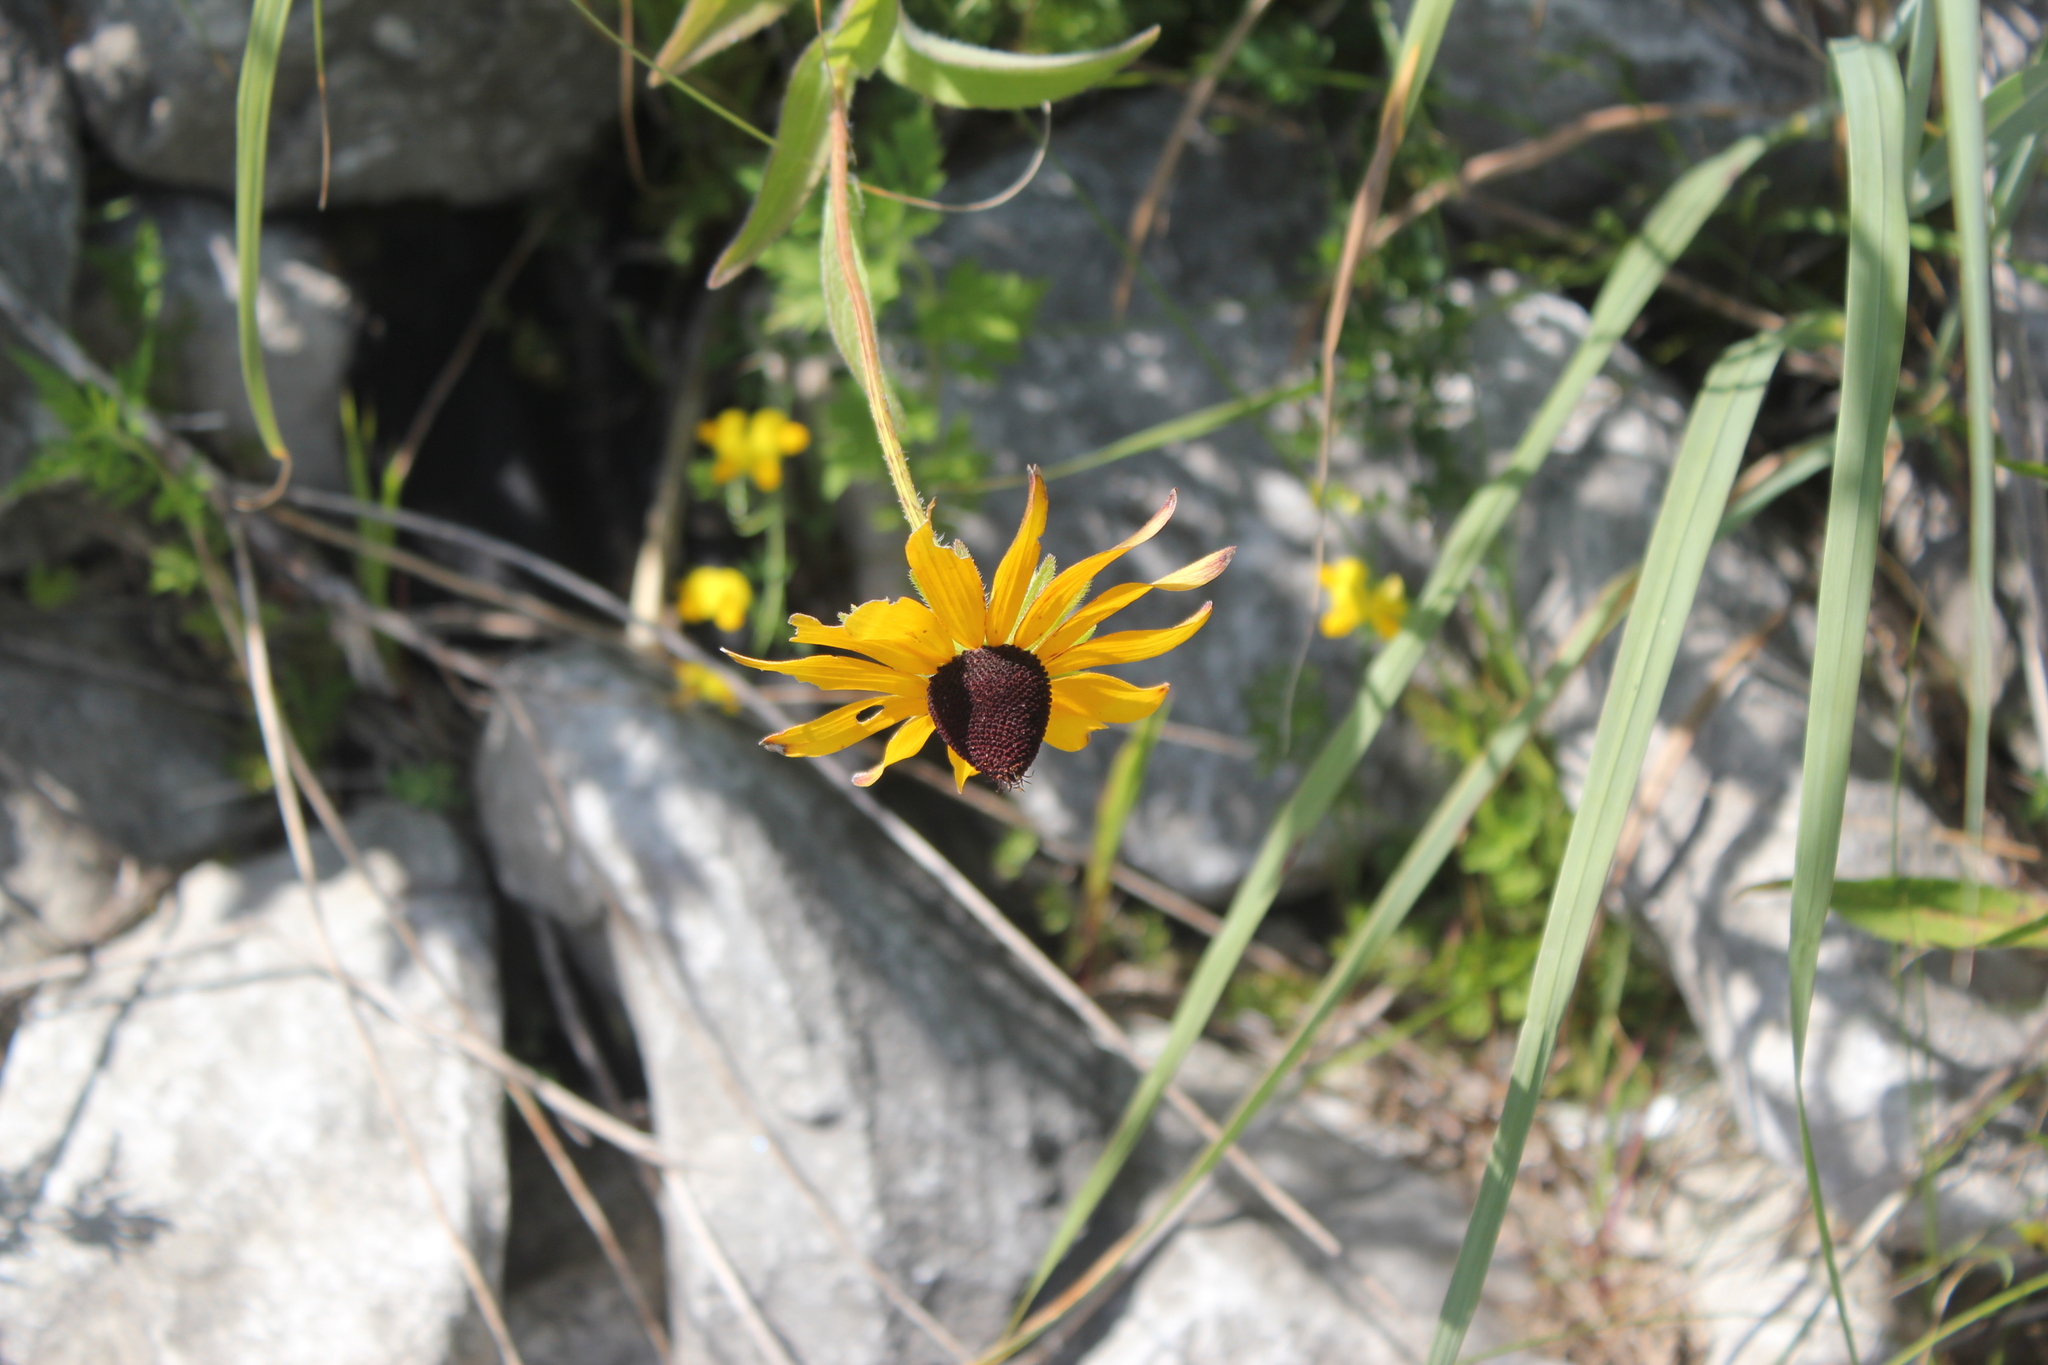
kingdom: Plantae
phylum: Tracheophyta
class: Magnoliopsida
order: Asterales
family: Asteraceae
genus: Rudbeckia
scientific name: Rudbeckia hirta
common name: Black-eyed-susan
